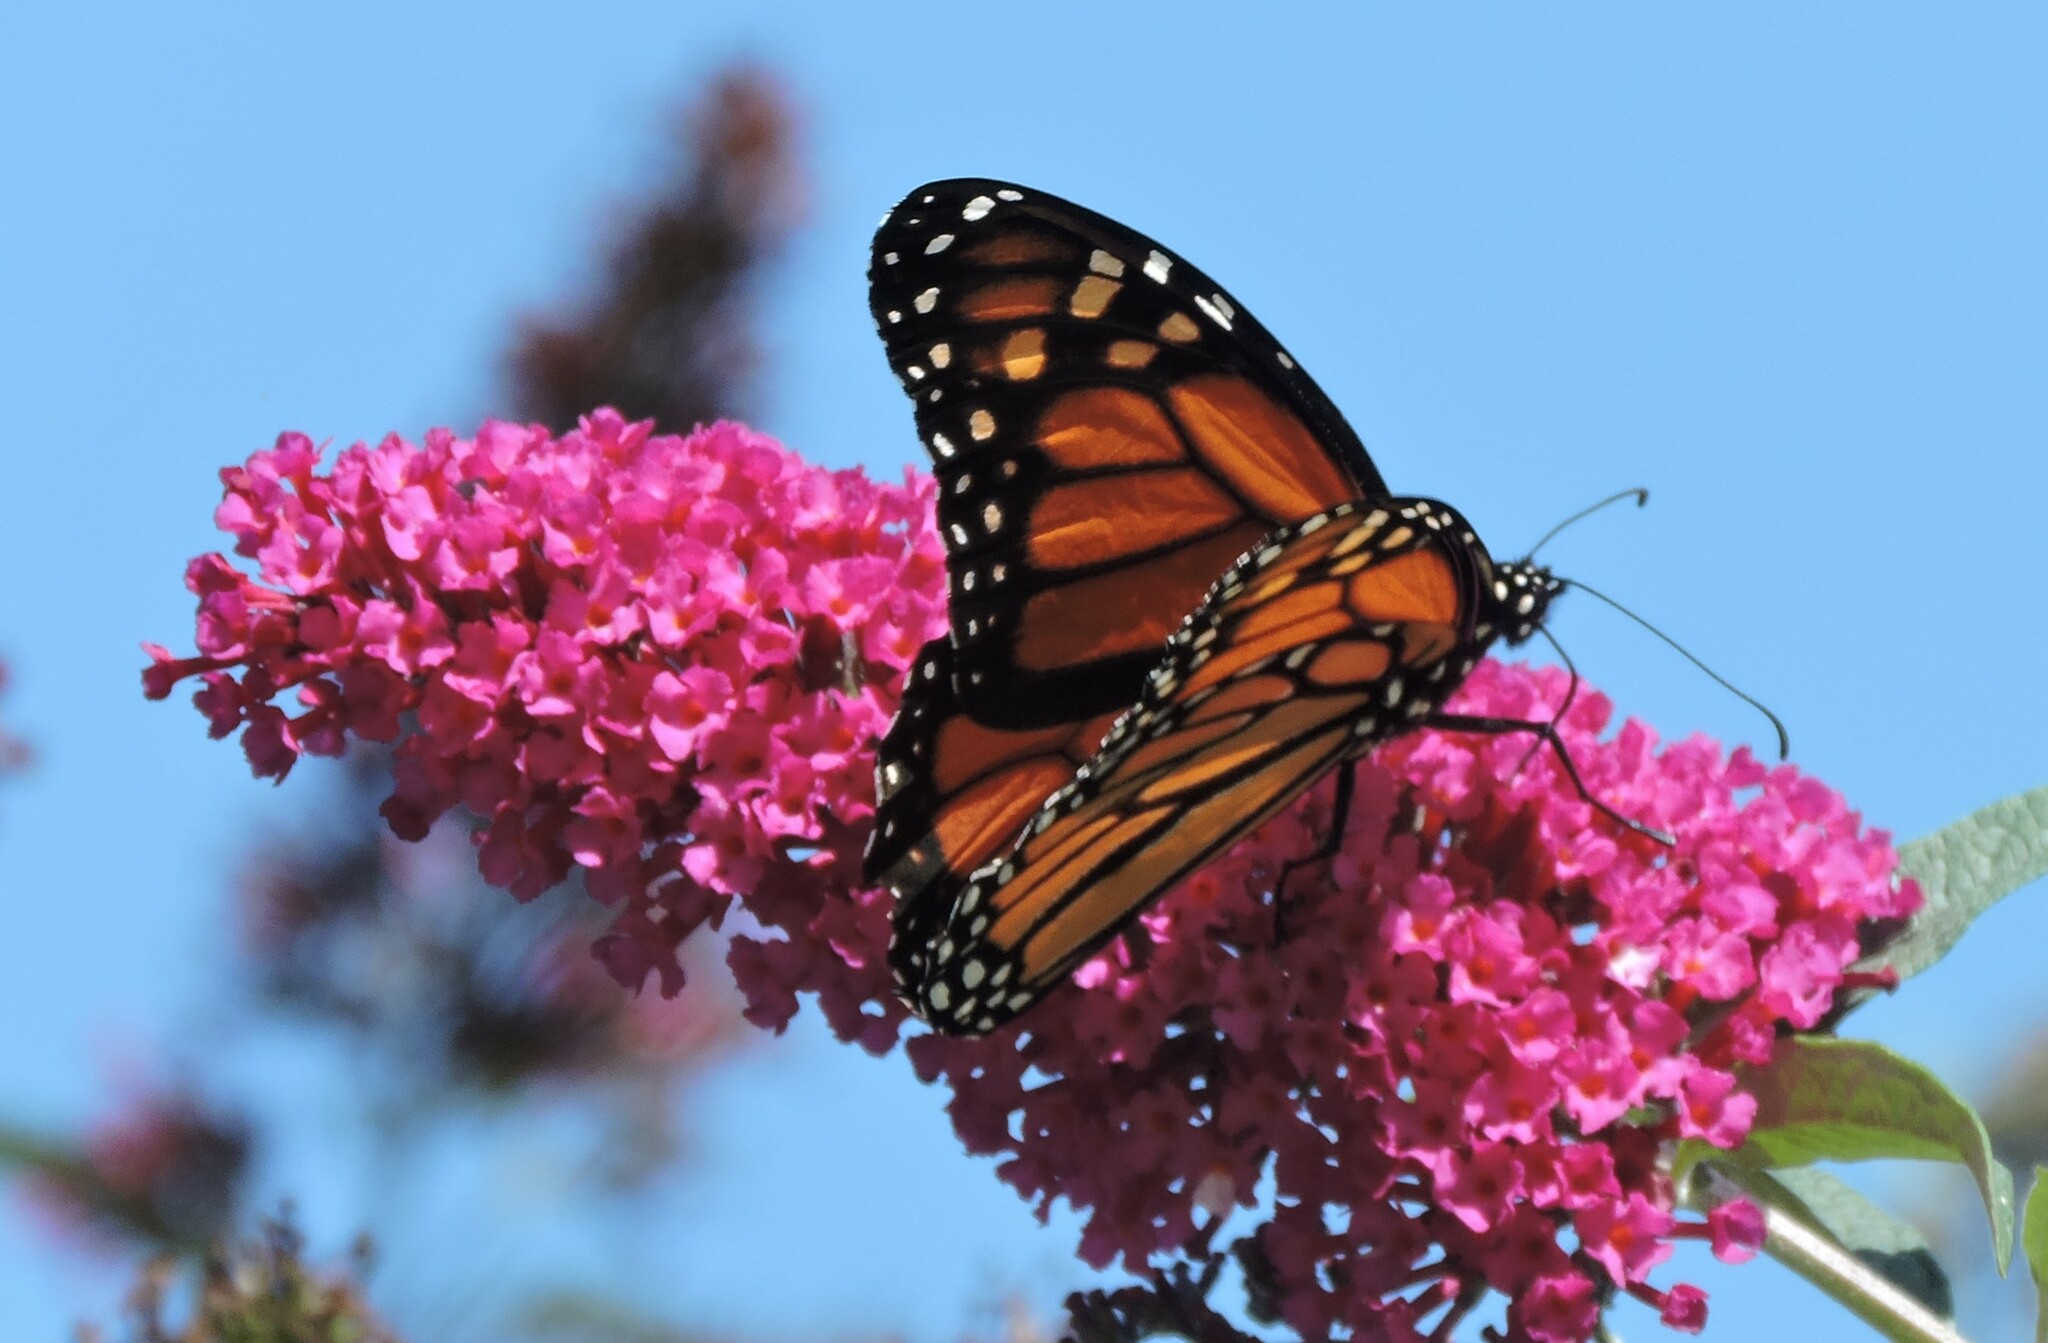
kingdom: Animalia
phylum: Arthropoda
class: Insecta
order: Lepidoptera
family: Nymphalidae
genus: Danaus
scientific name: Danaus plexippus
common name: Monarch
